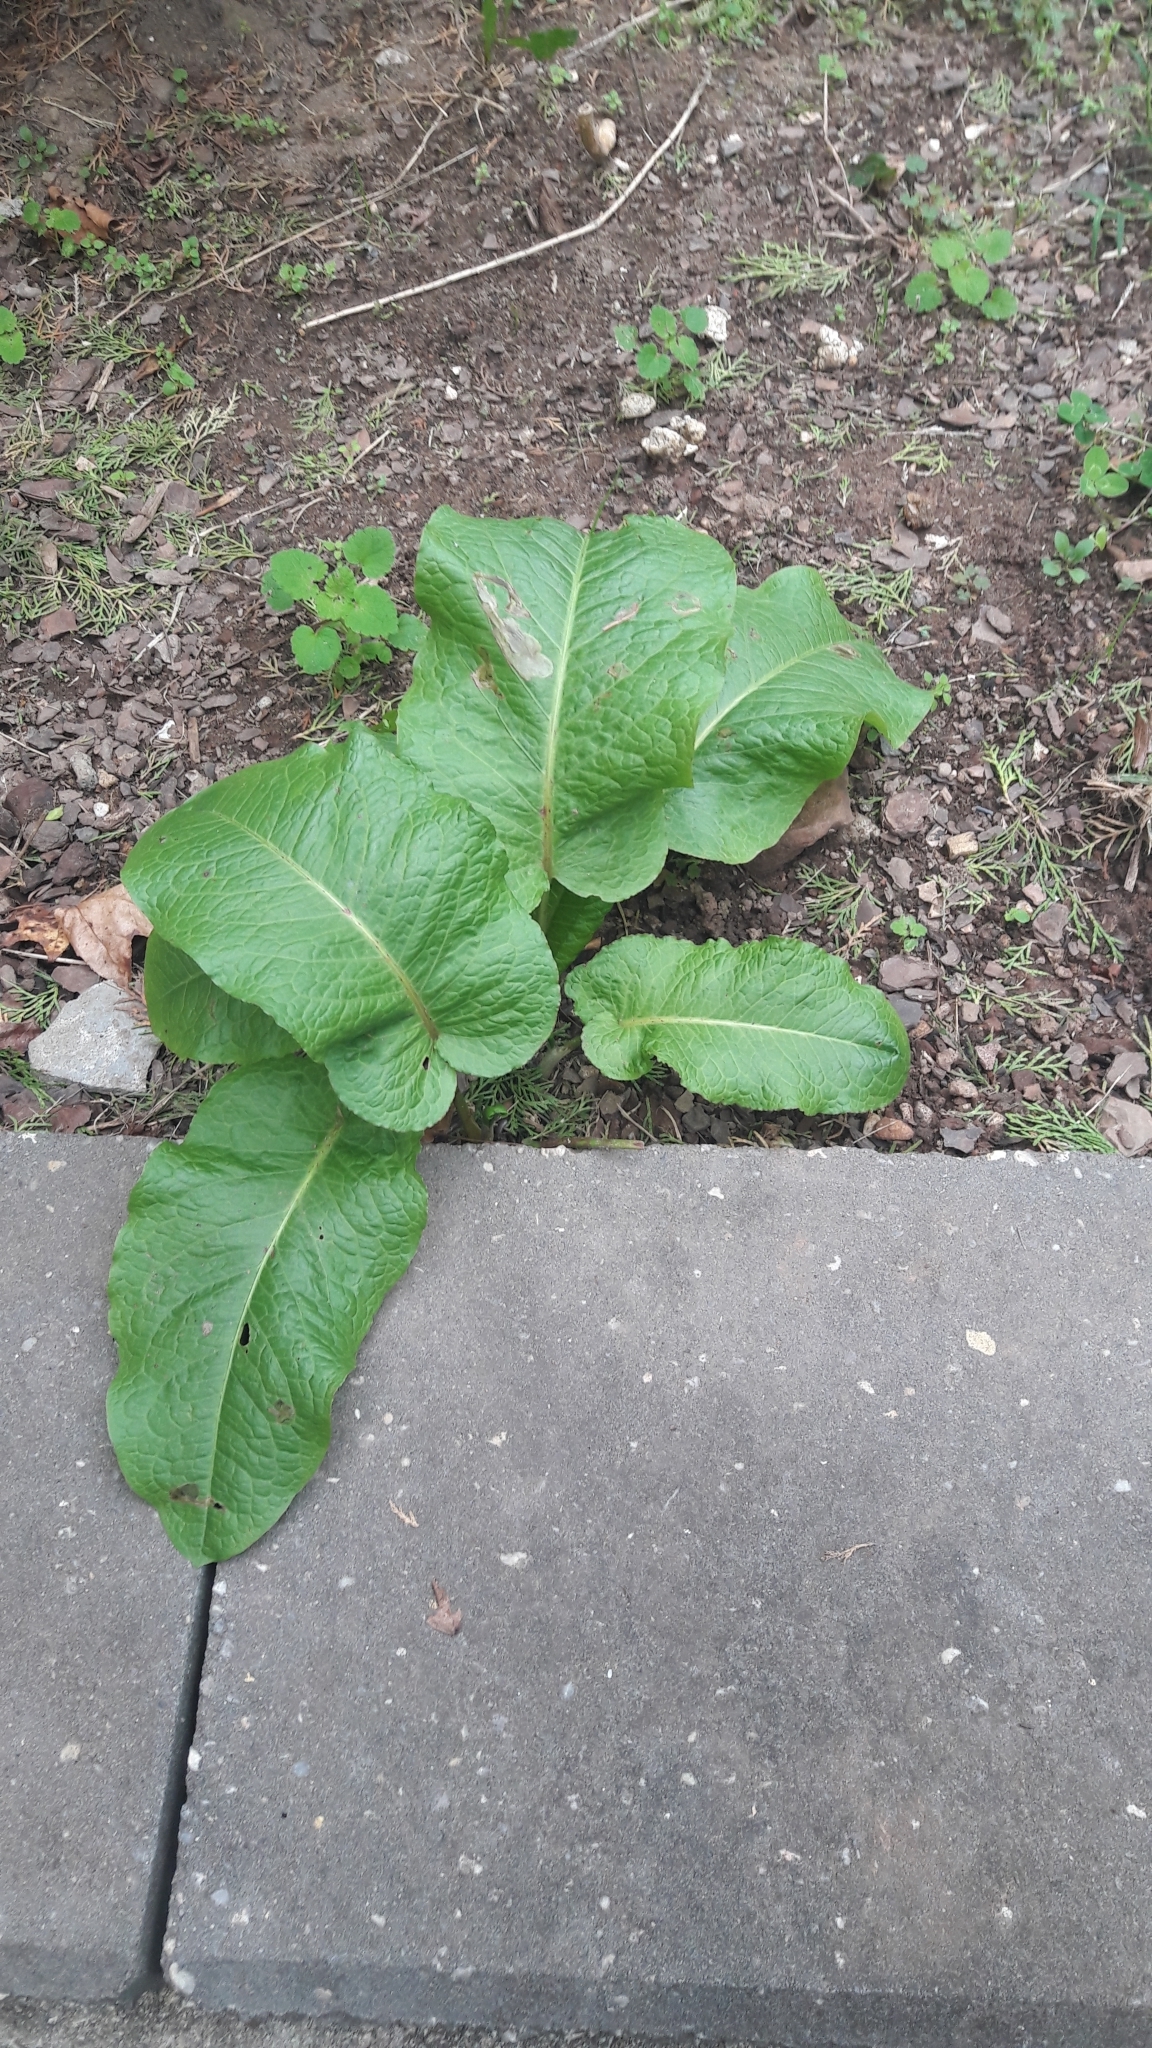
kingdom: Plantae
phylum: Tracheophyta
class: Magnoliopsida
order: Caryophyllales
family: Polygonaceae
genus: Rumex
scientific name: Rumex obtusifolius
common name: Bitter dock
